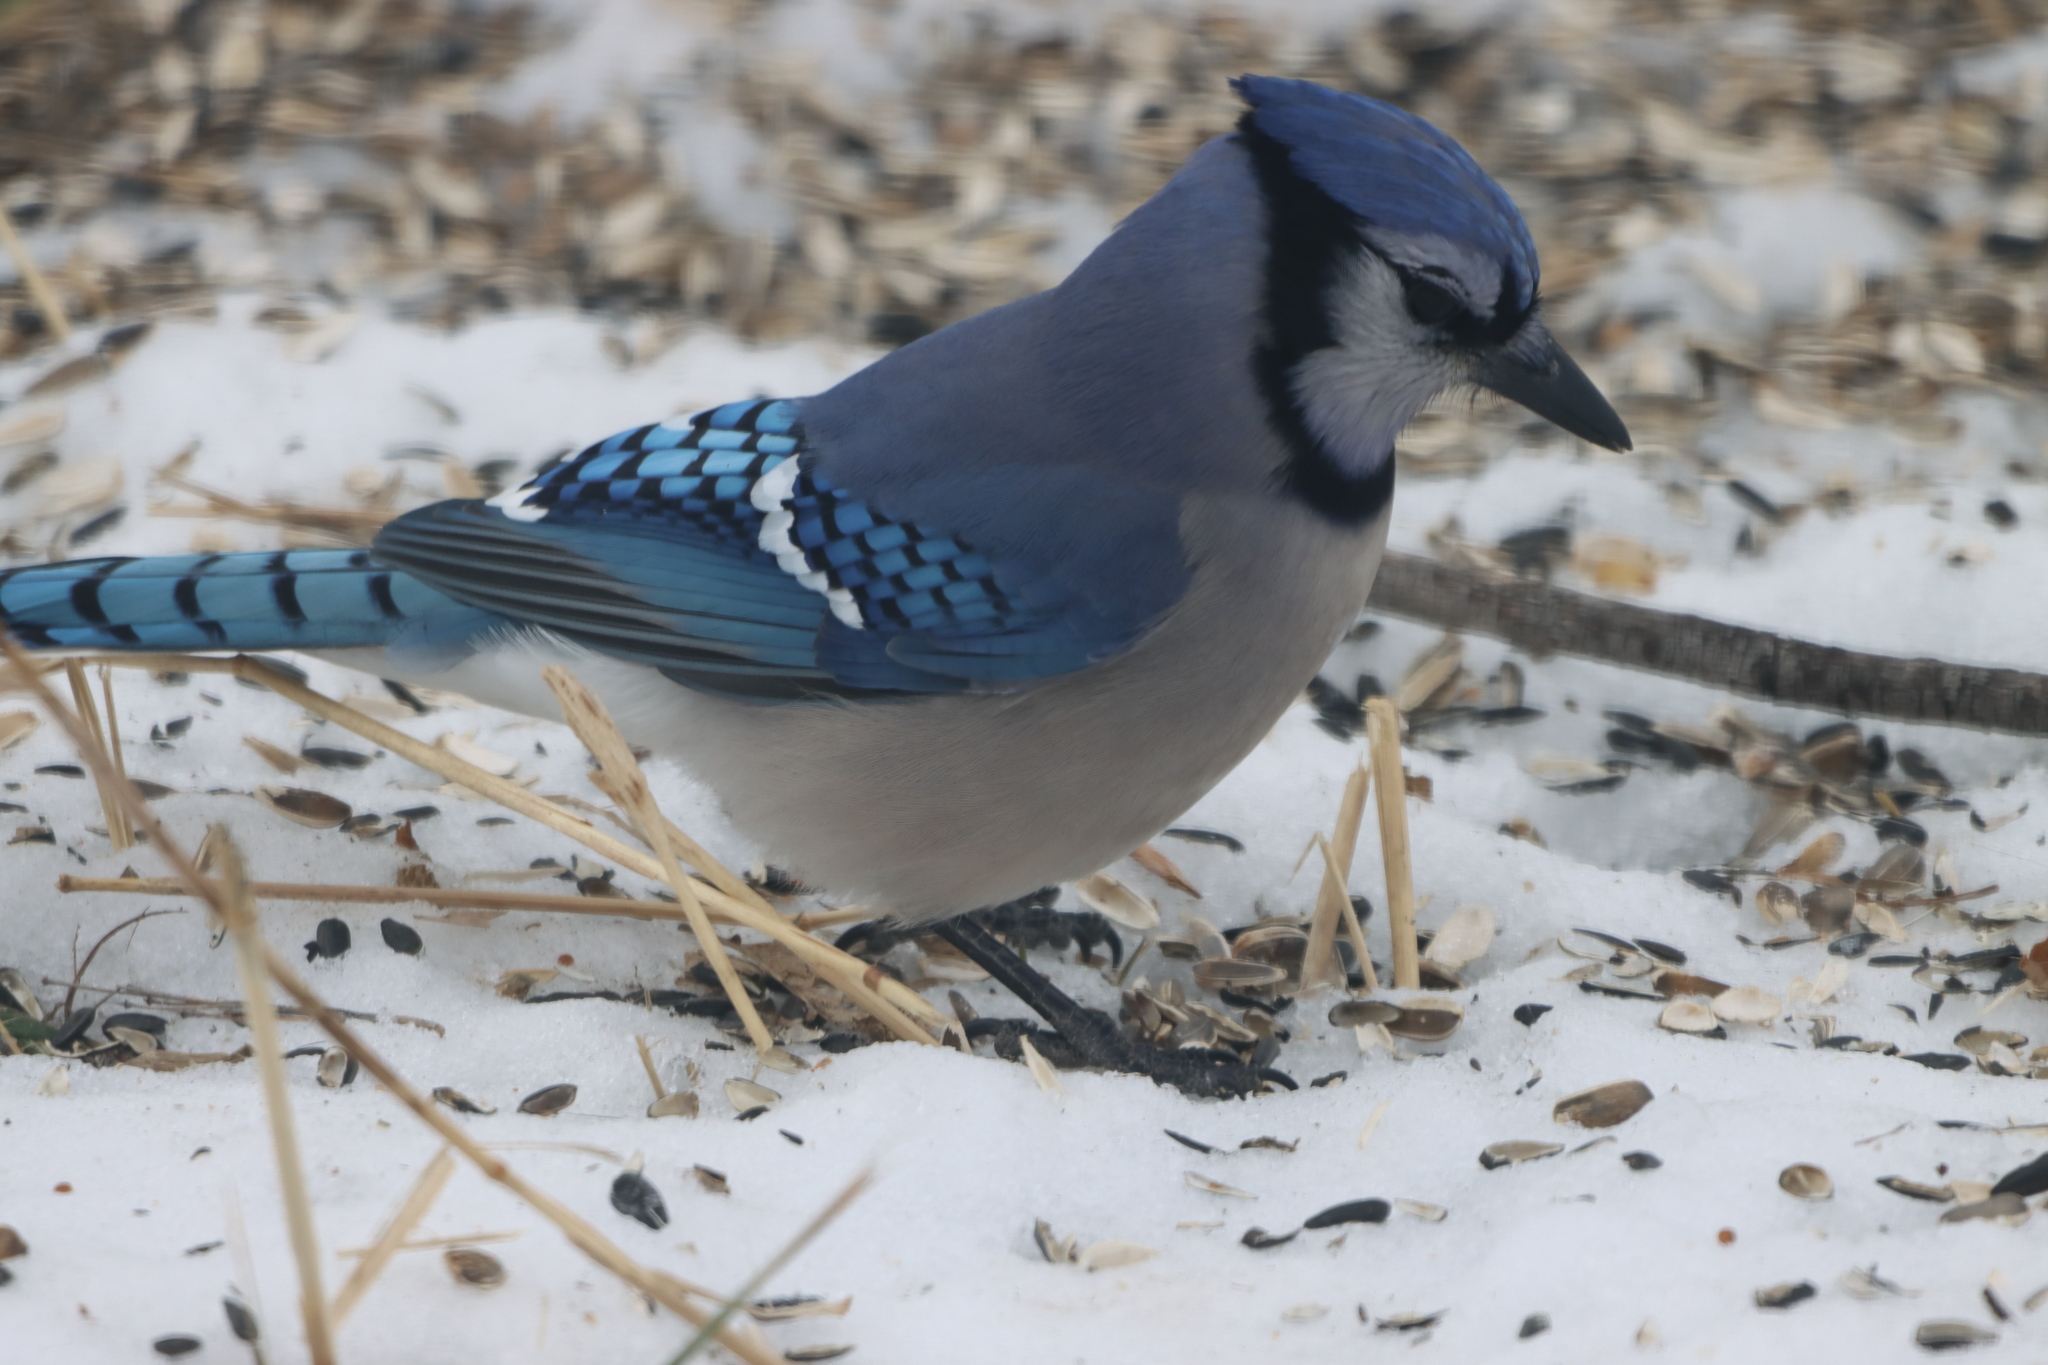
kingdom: Animalia
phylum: Chordata
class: Aves
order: Passeriformes
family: Corvidae
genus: Cyanocitta
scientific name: Cyanocitta cristata
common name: Blue jay
